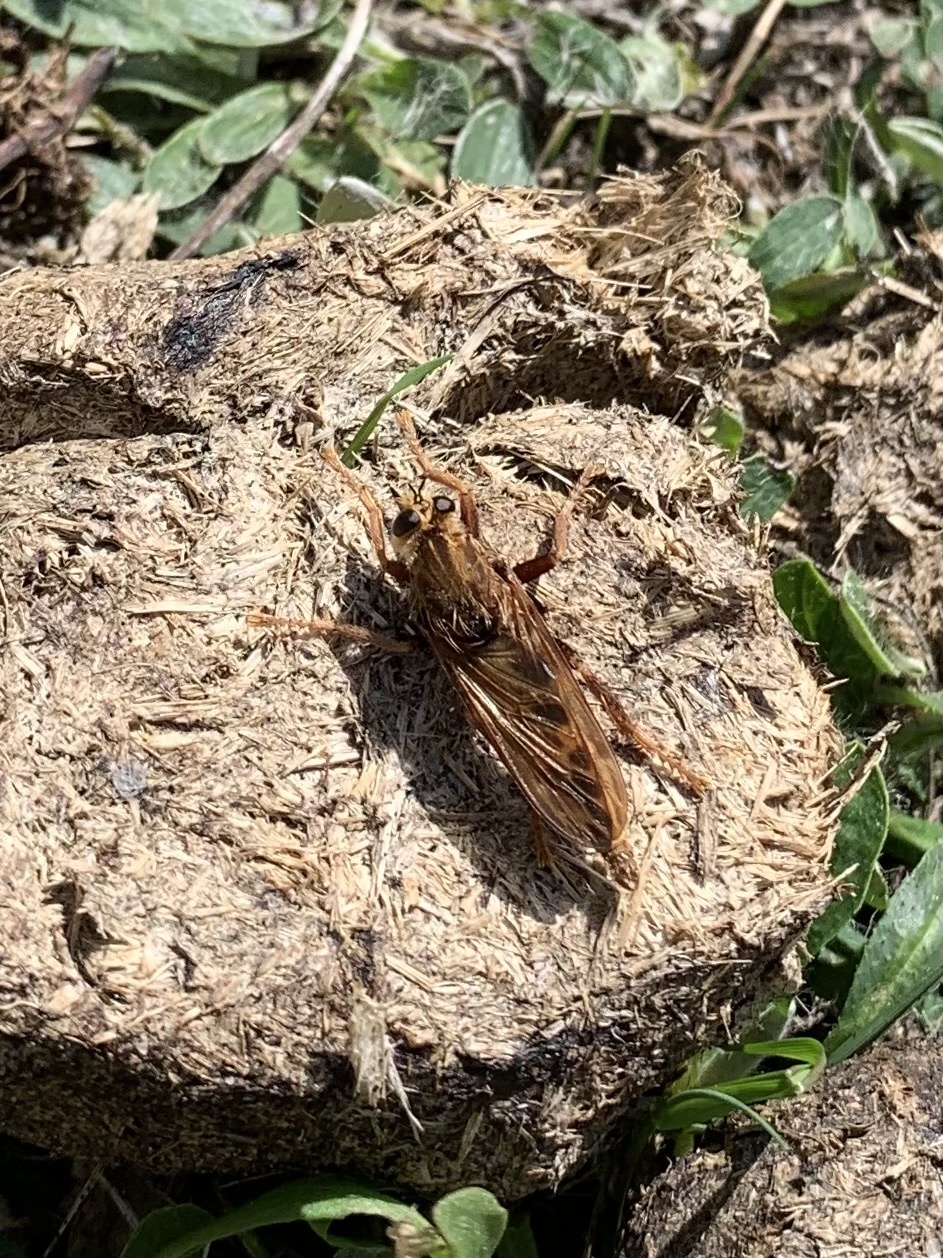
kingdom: Animalia
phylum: Arthropoda
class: Insecta
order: Diptera
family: Asilidae
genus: Asilus
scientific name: Asilus crabroniformis
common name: Hornet robberfly
